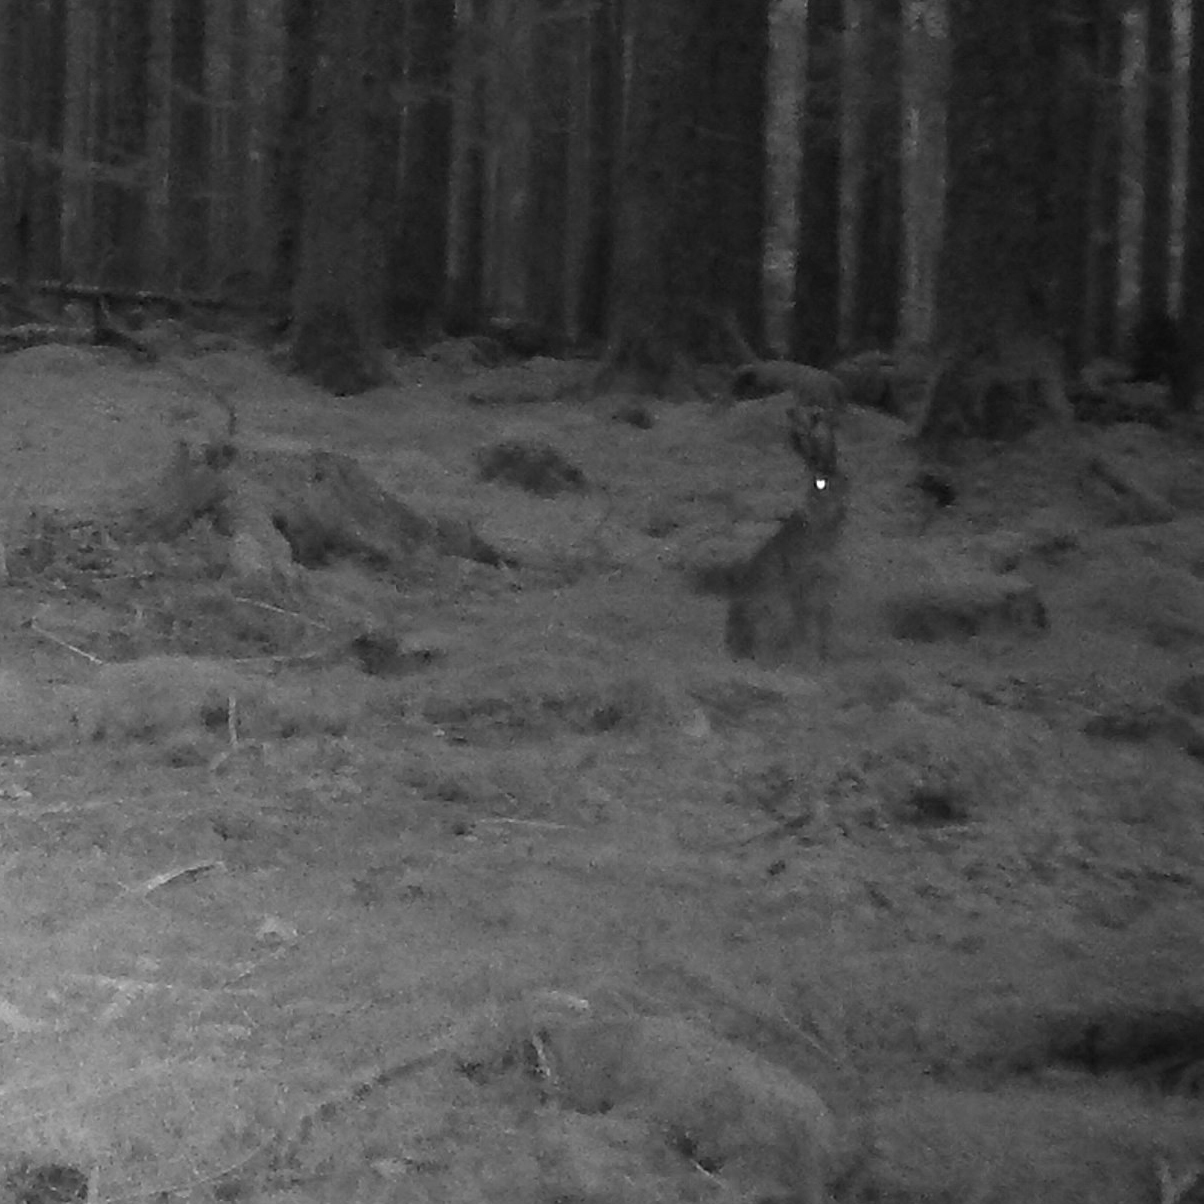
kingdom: Animalia
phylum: Chordata
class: Mammalia
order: Lagomorpha
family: Leporidae
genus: Lepus
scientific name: Lepus europaeus
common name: European hare
